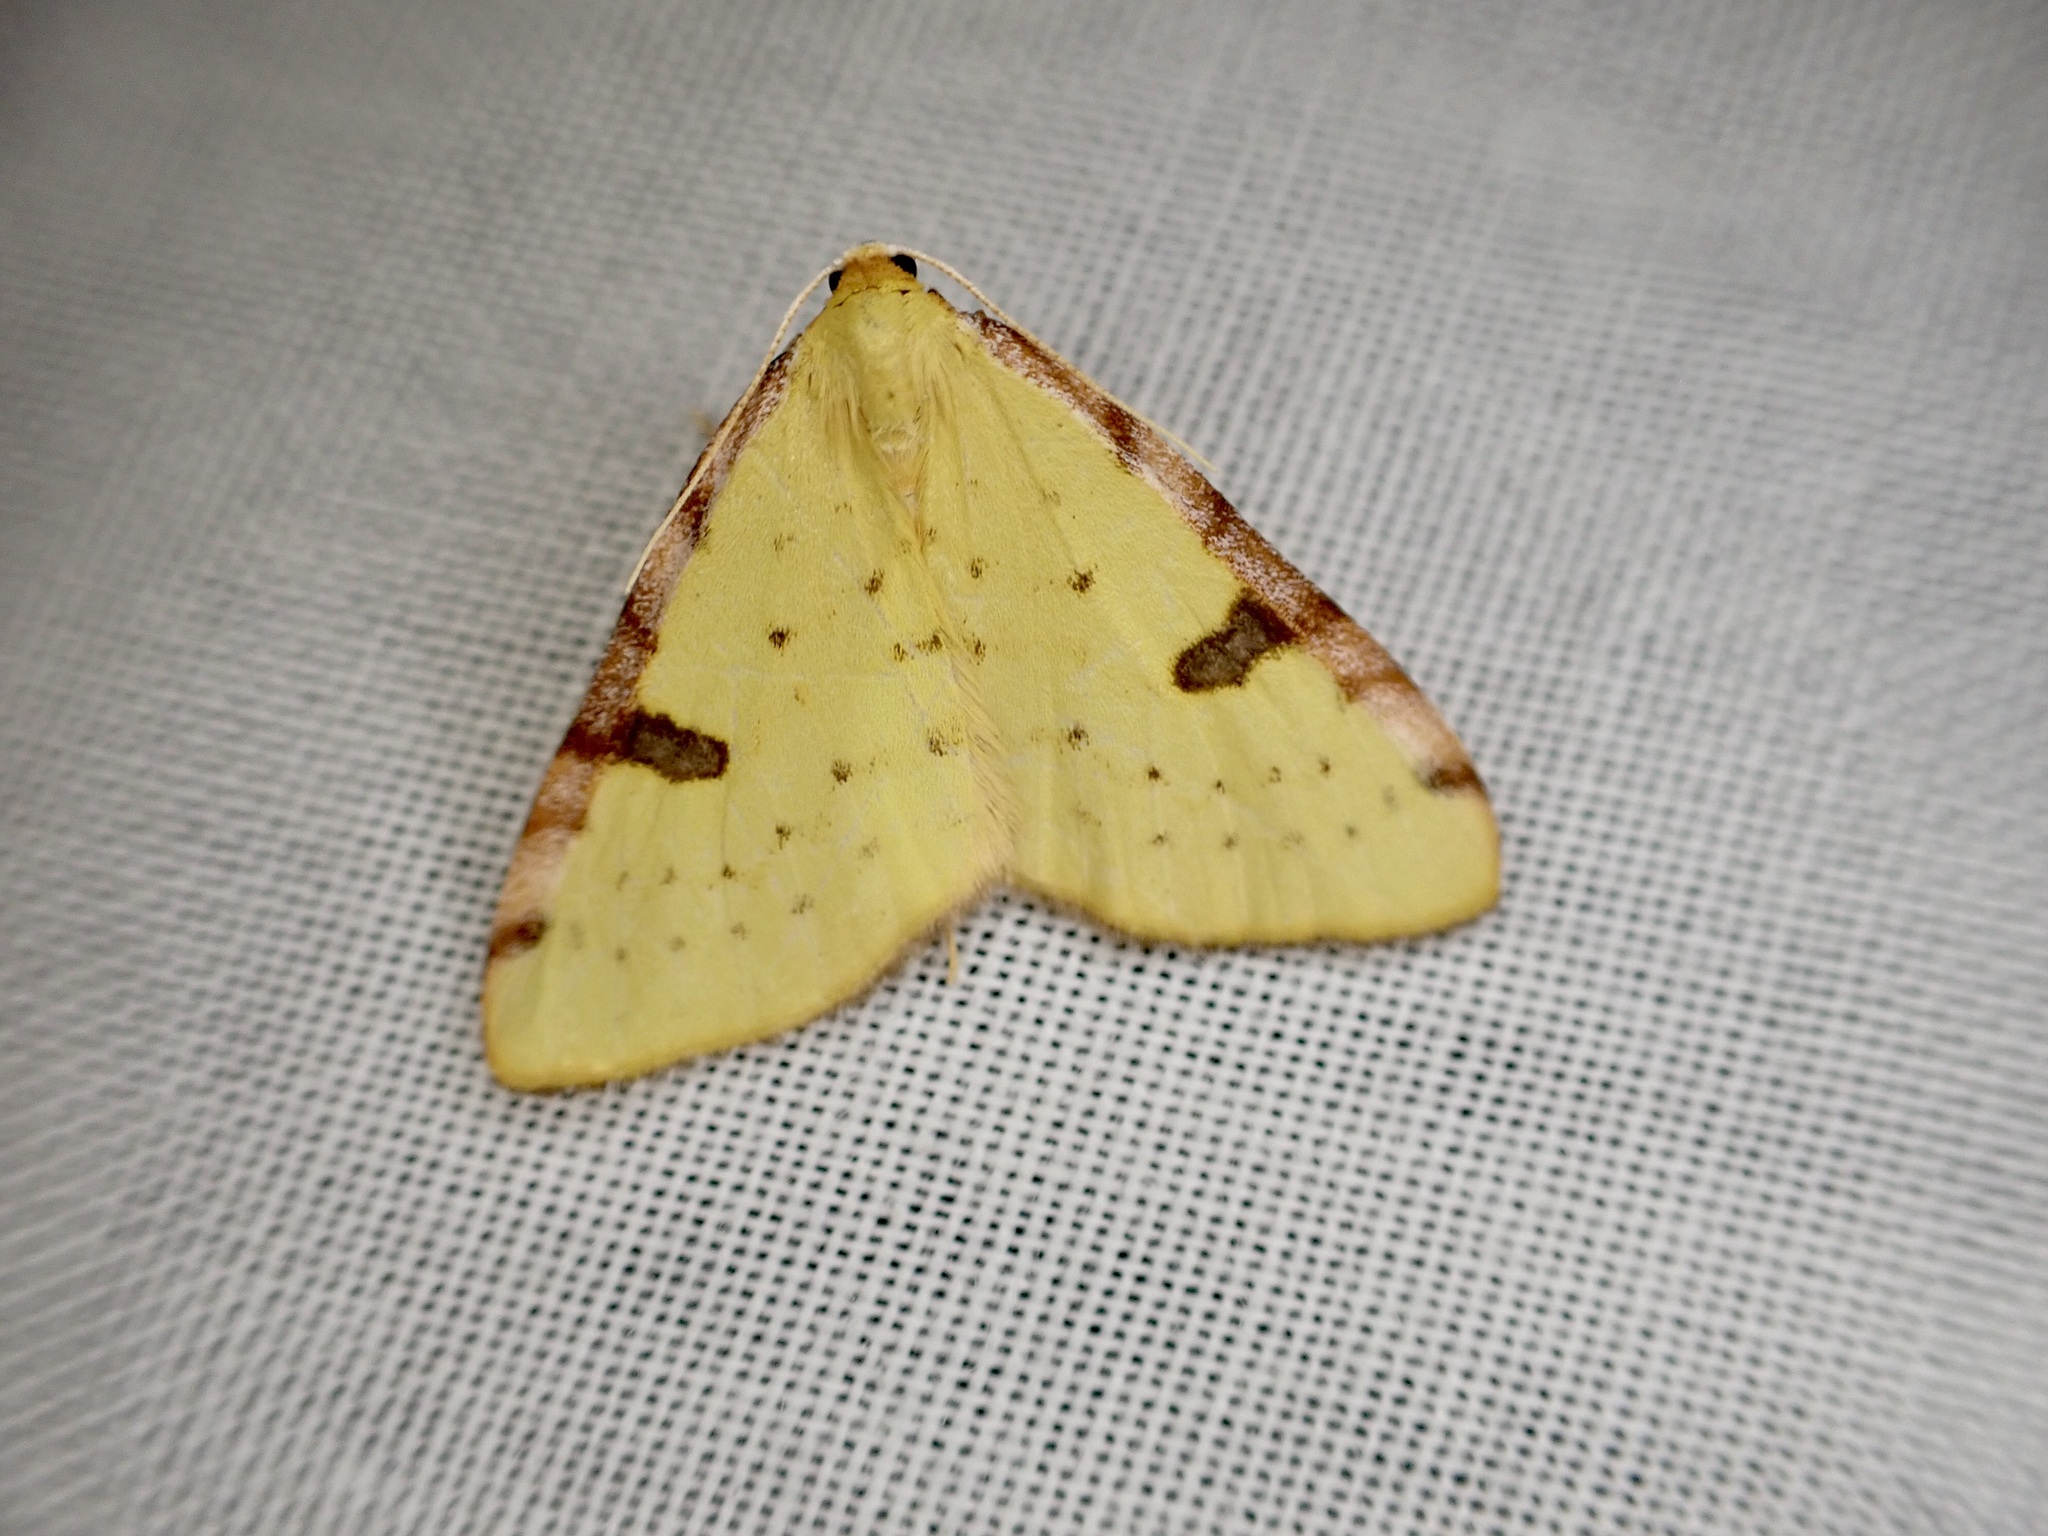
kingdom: Animalia
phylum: Arthropoda
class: Insecta
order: Lepidoptera
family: Geometridae
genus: Epiphryne
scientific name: Epiphryne xanthaspis
